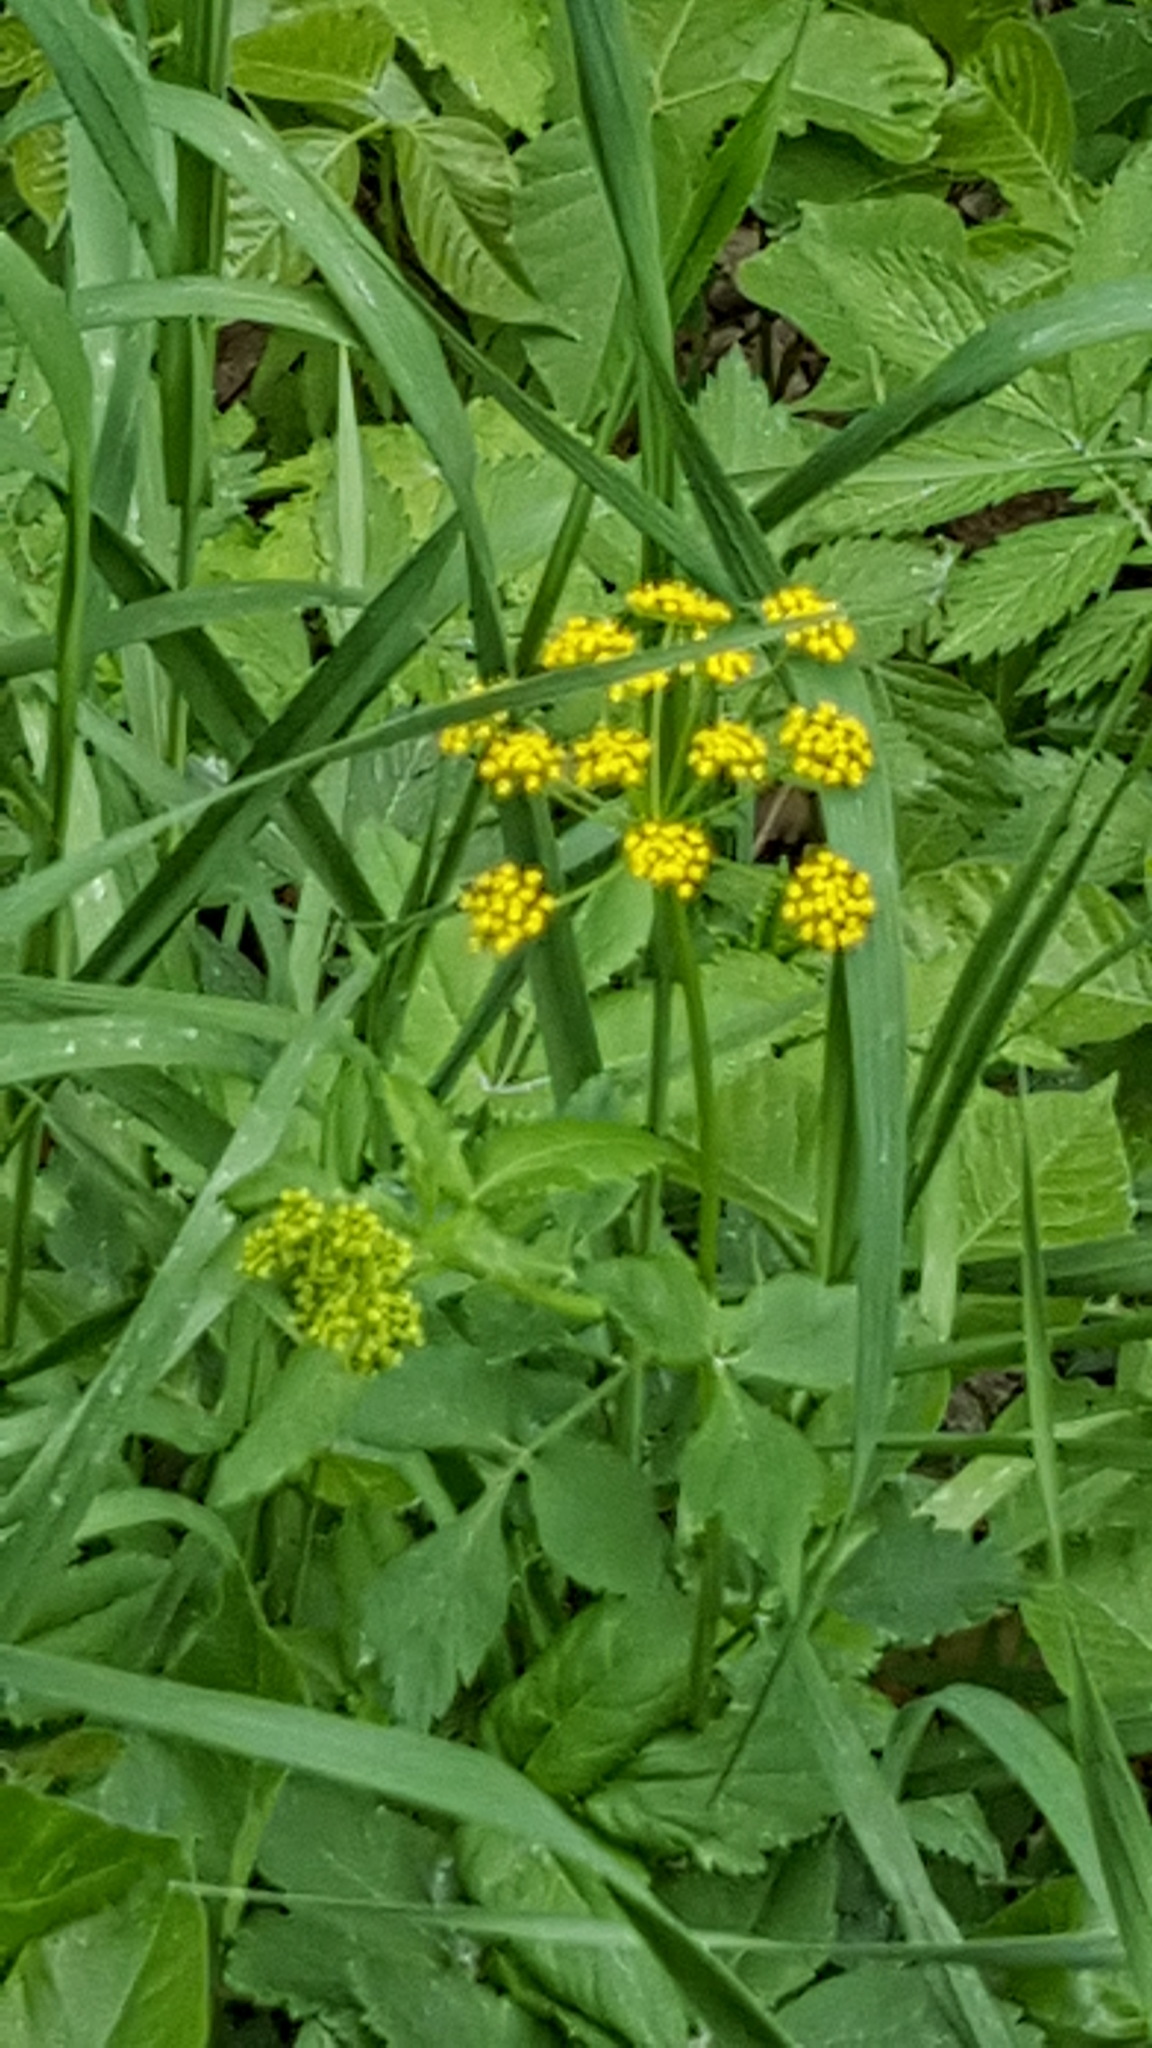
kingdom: Plantae
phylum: Tracheophyta
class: Magnoliopsida
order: Apiales
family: Apiaceae
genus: Zizia
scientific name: Zizia aurea
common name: Golden alexanders
